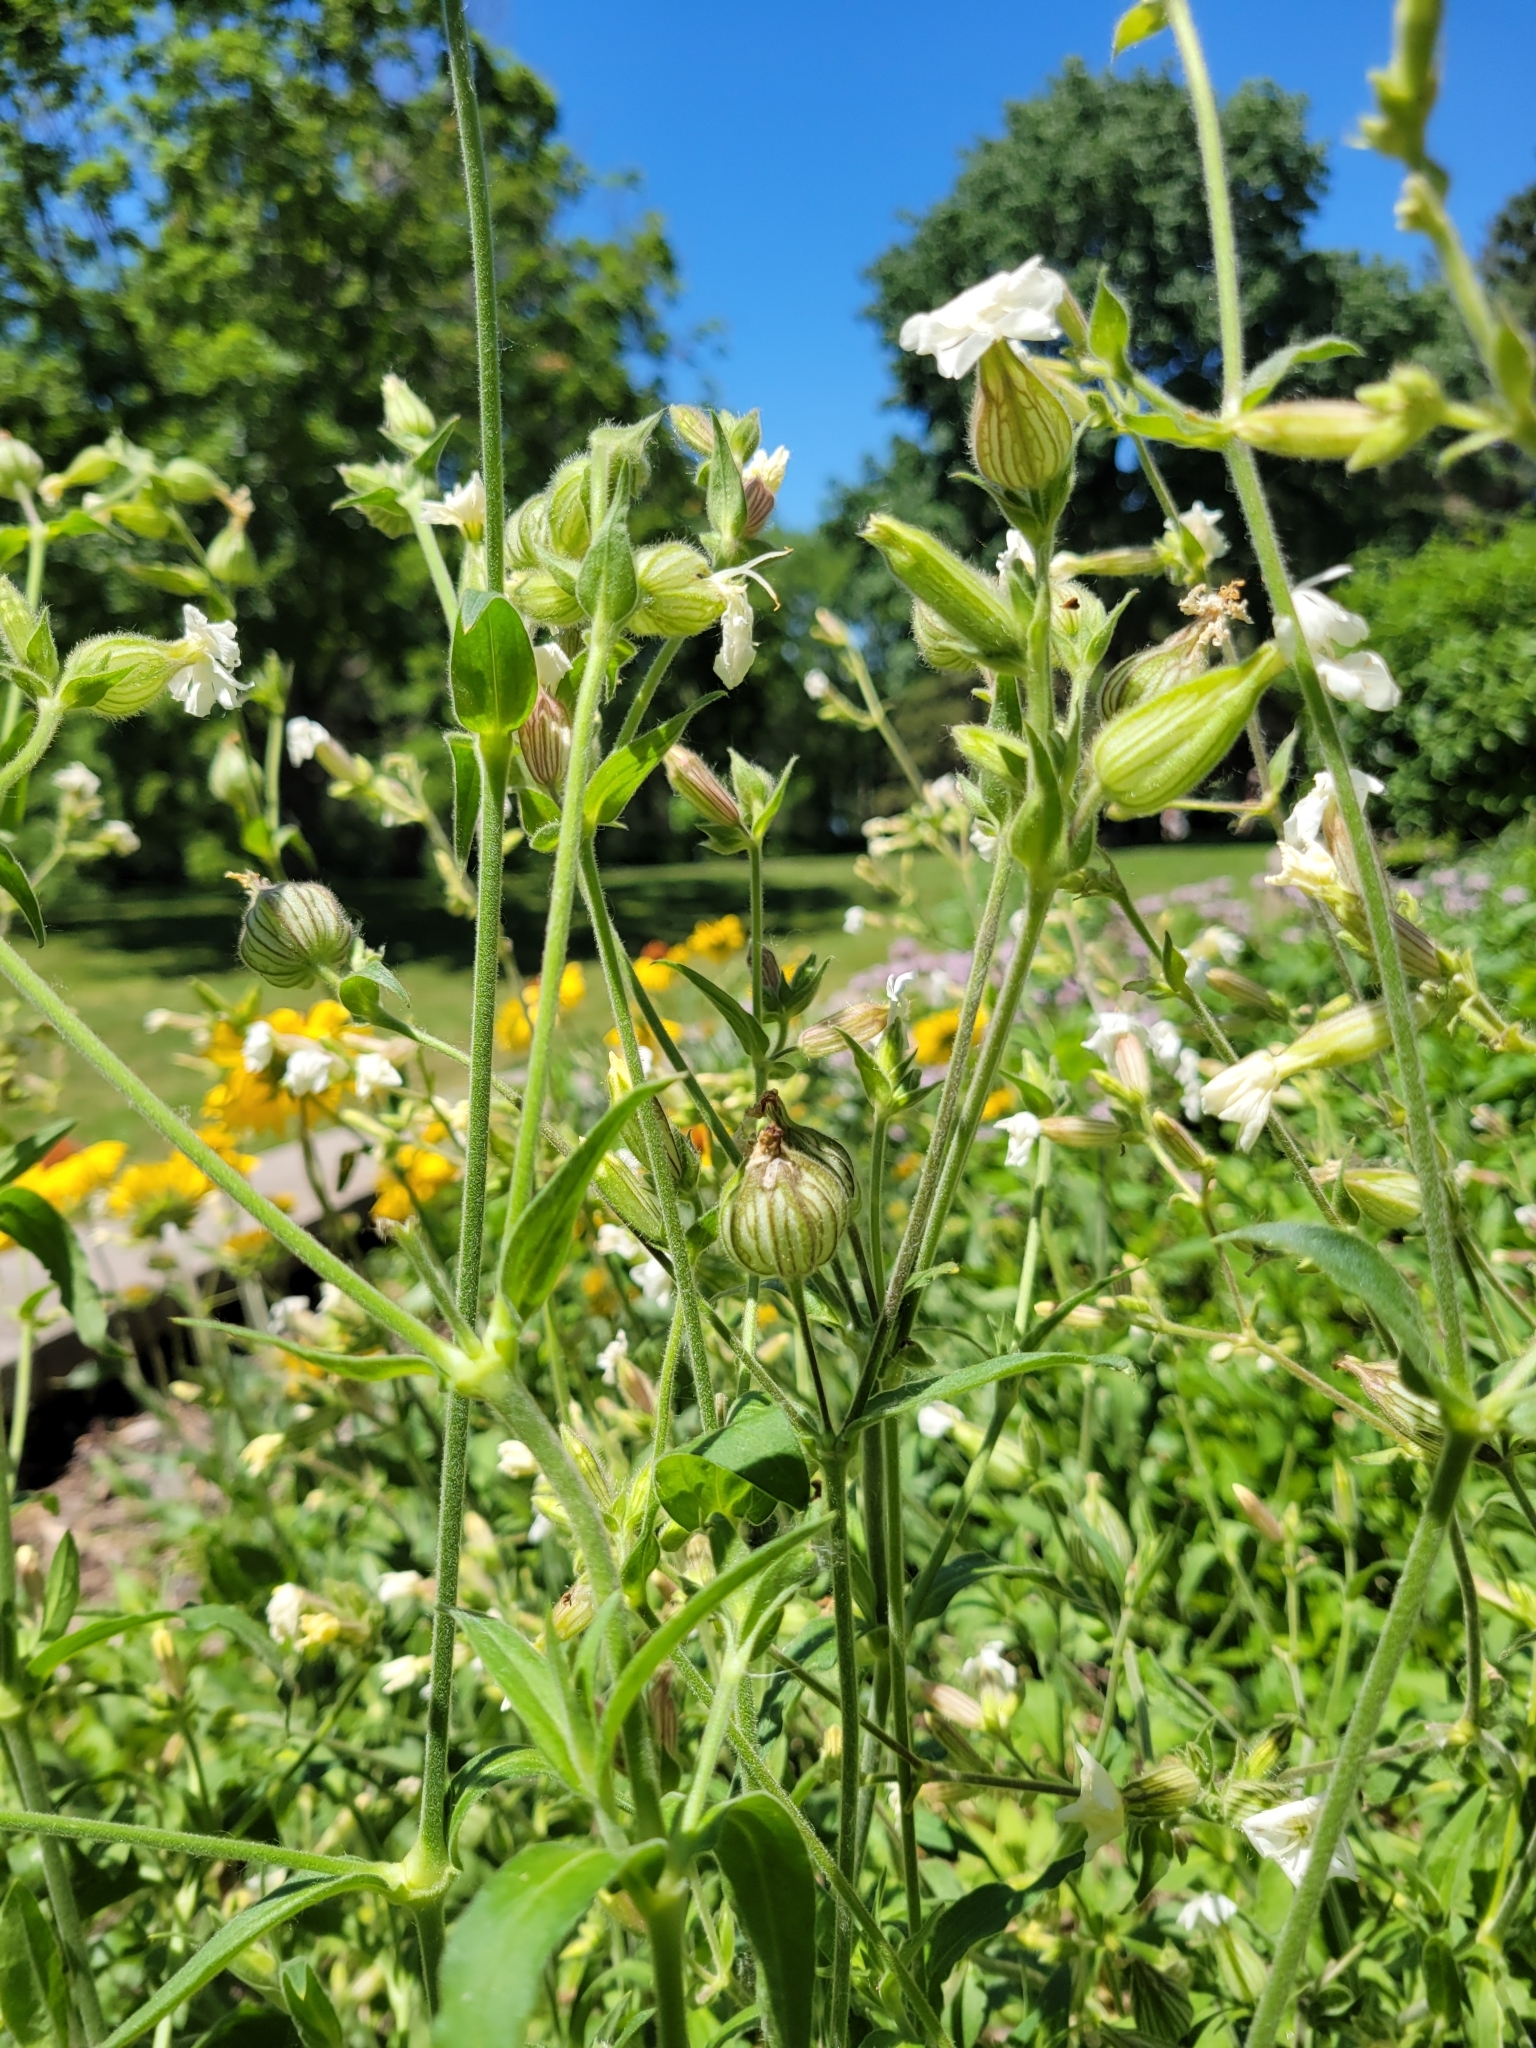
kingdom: Plantae
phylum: Tracheophyta
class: Magnoliopsida
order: Caryophyllales
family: Caryophyllaceae
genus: Silene
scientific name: Silene latifolia
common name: White campion
